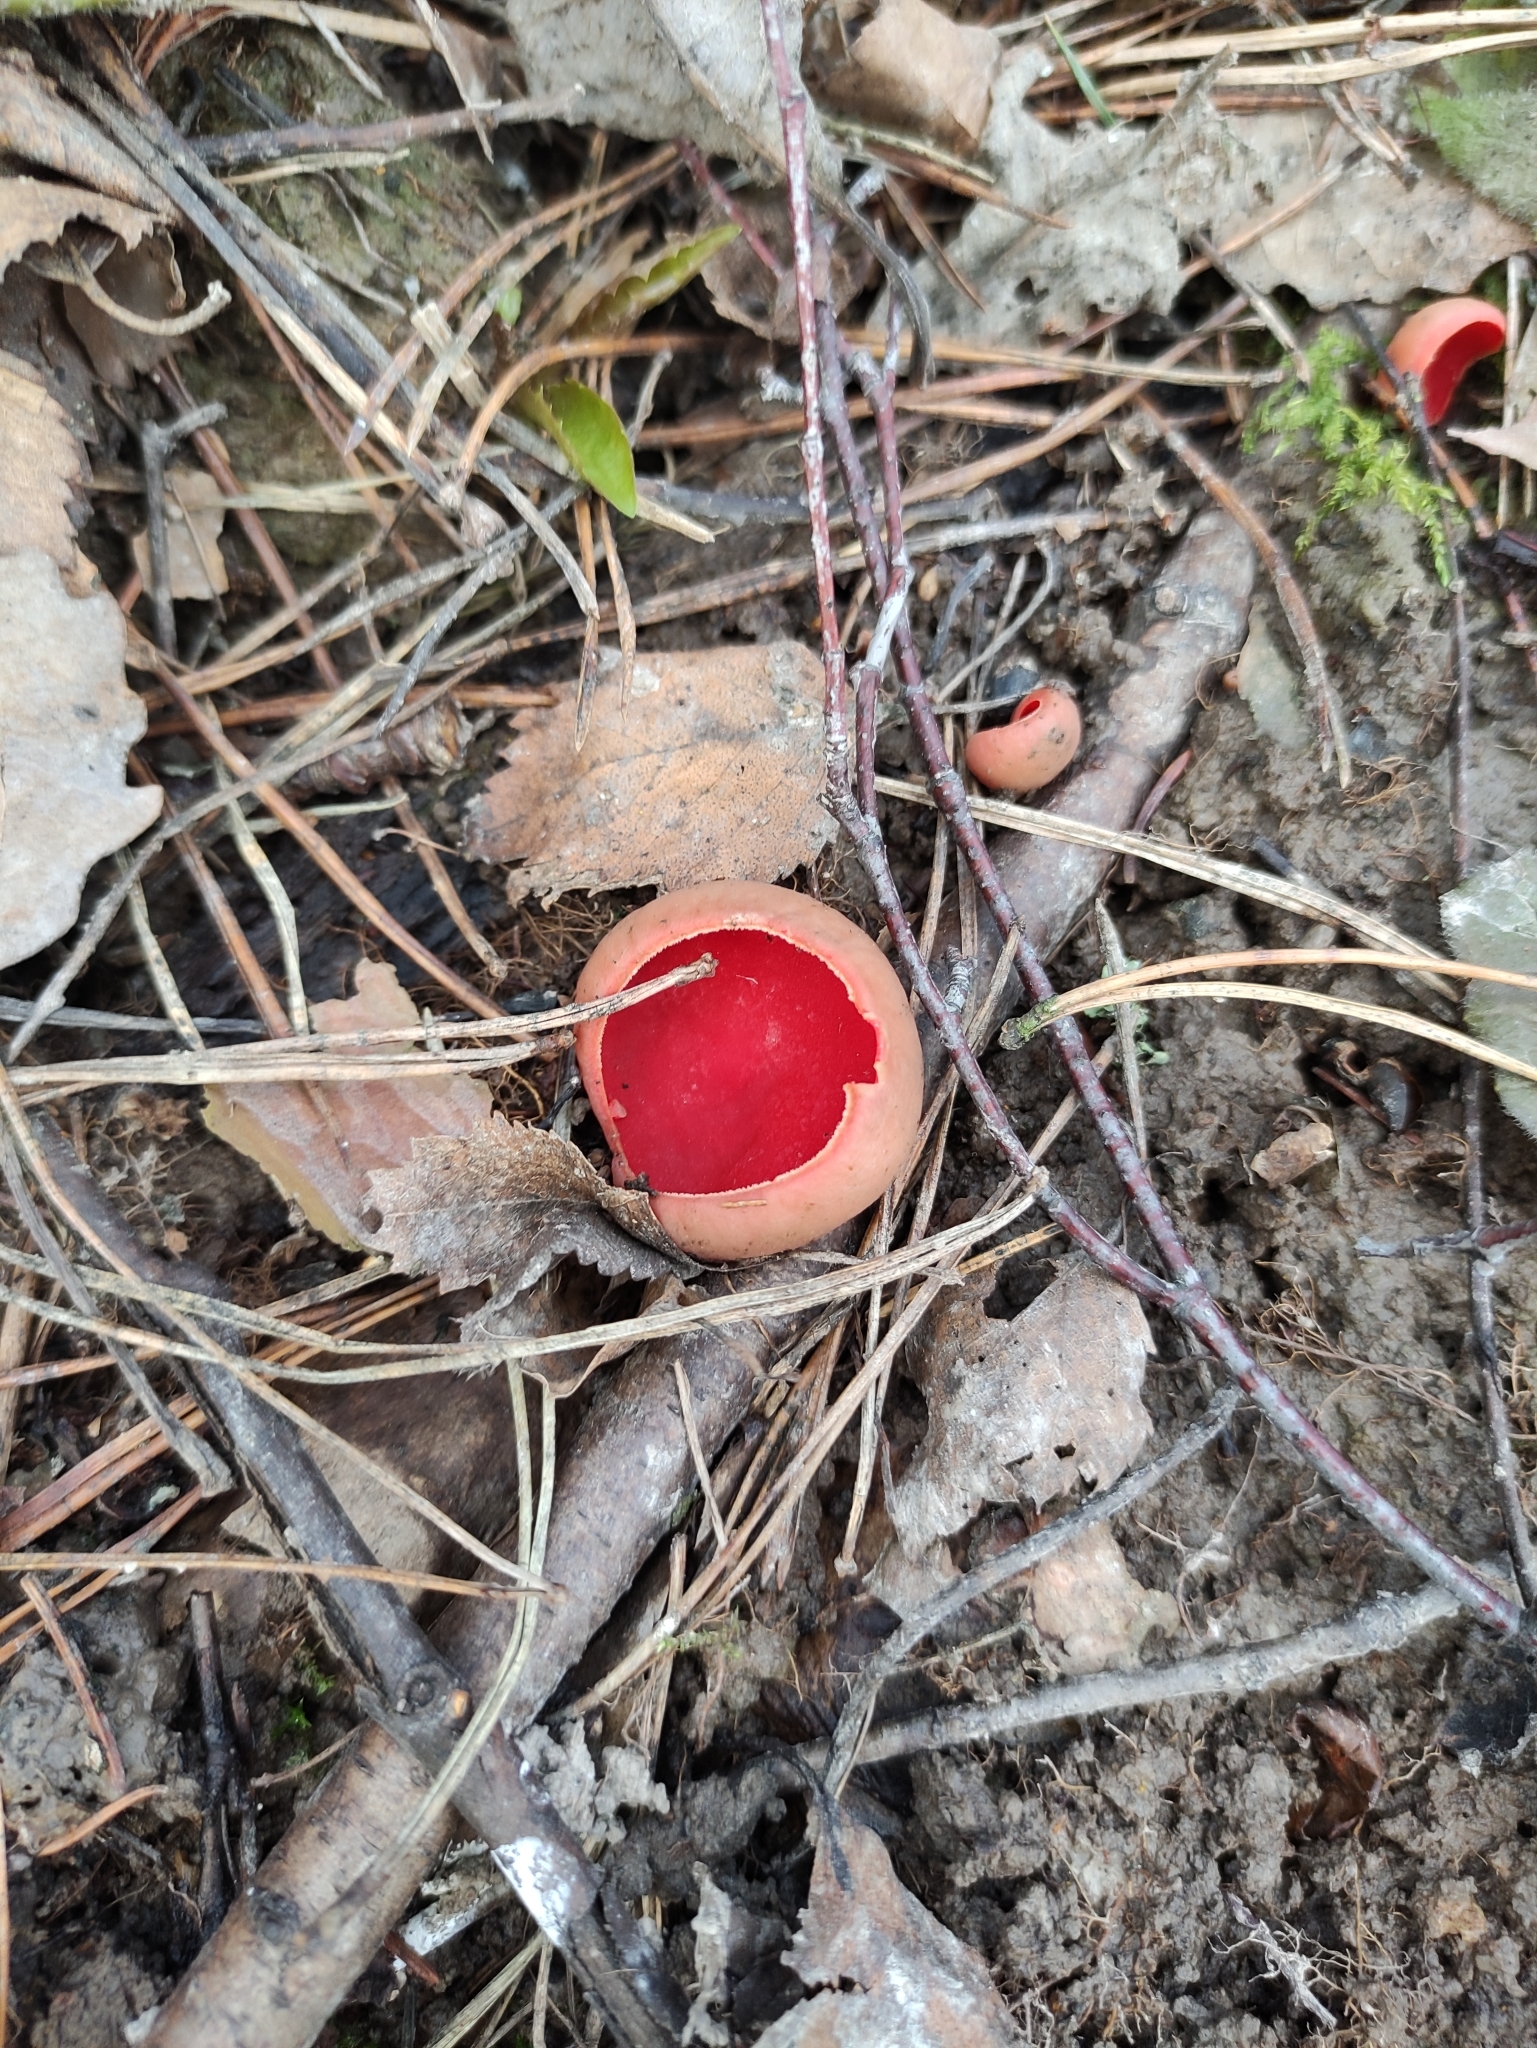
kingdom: Fungi
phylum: Ascomycota
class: Pezizomycetes
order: Pezizales
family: Sarcoscyphaceae
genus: Sarcoscypha
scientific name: Sarcoscypha austriaca
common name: Scarlet elfcup
